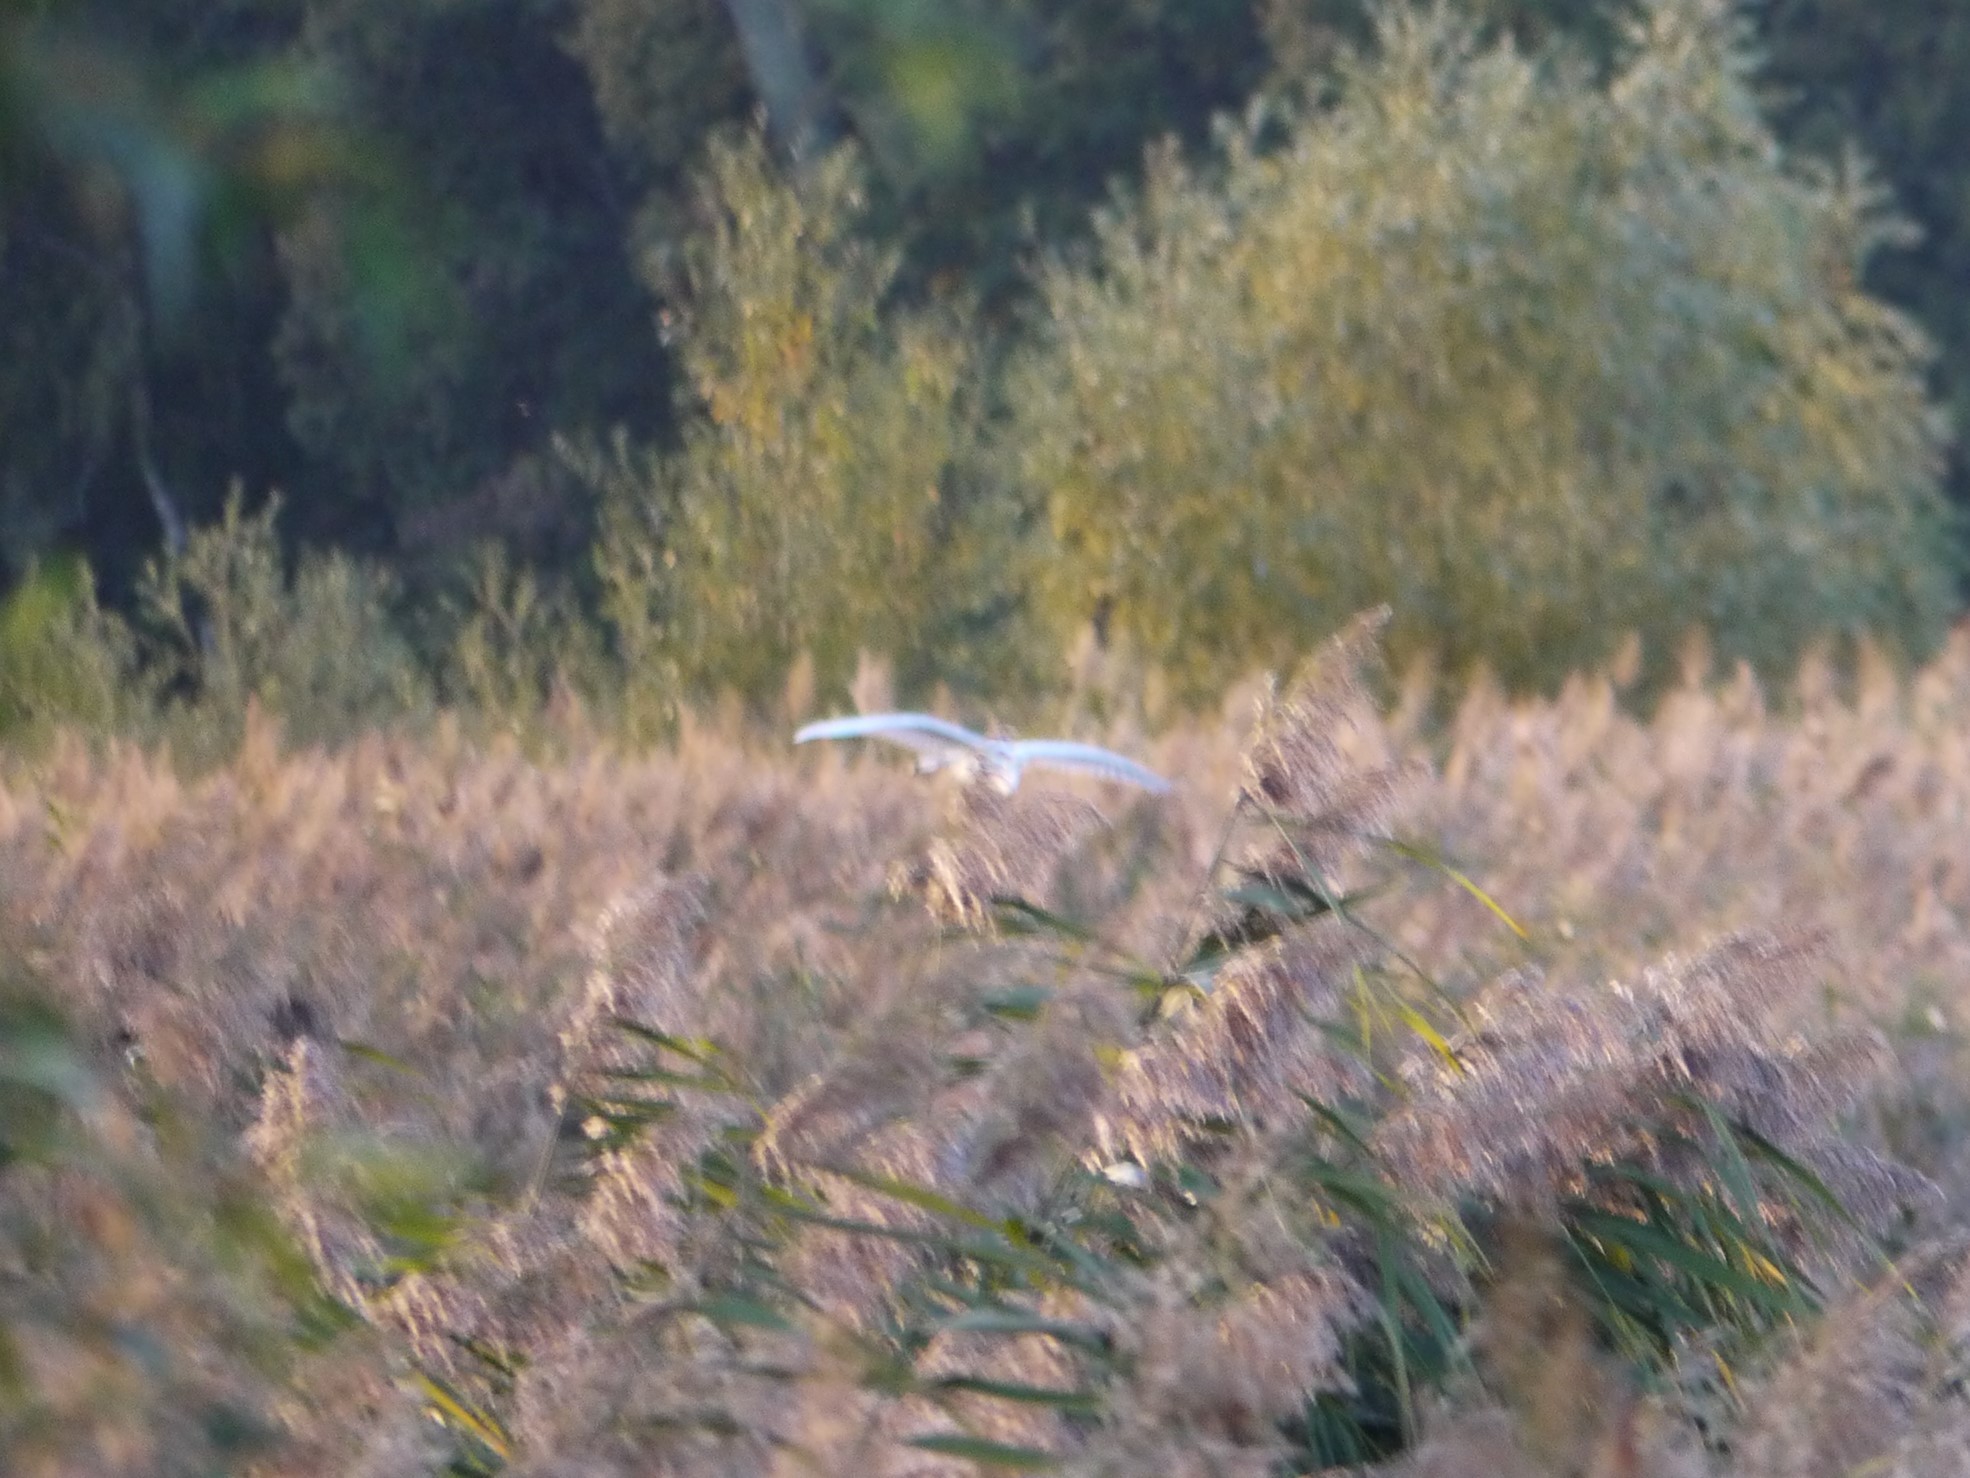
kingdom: Animalia
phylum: Chordata
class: Aves
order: Pelecaniformes
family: Ardeidae
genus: Ardea
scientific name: Ardea alba
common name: Great egret
